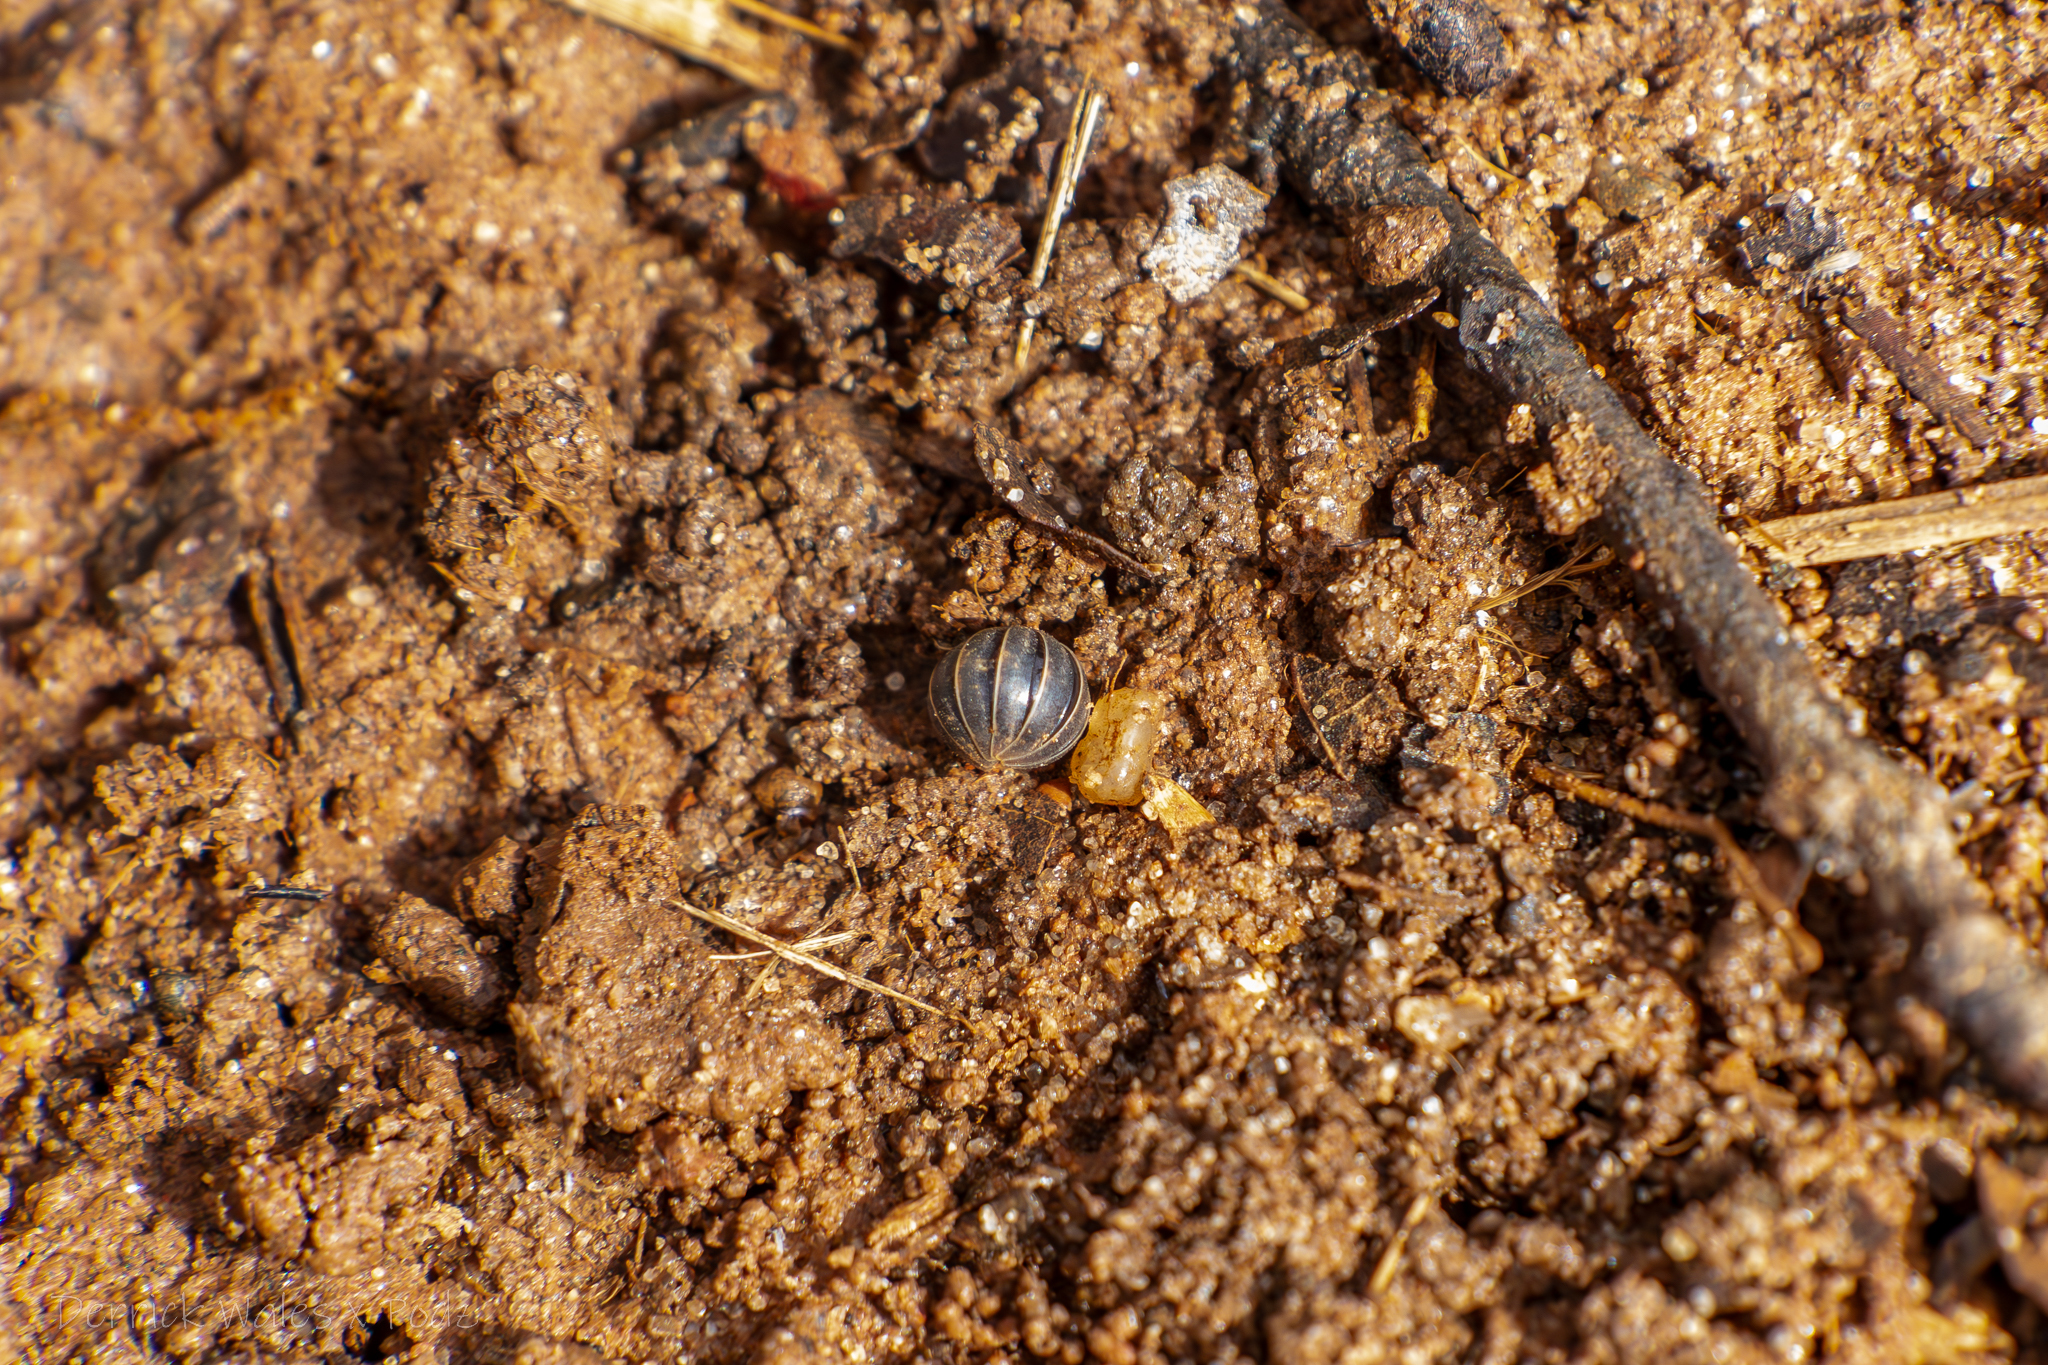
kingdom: Animalia
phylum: Arthropoda
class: Malacostraca
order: Isopoda
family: Armadillidiidae
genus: Armadillidium
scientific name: Armadillidium vulgare
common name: Common pill woodlouse
